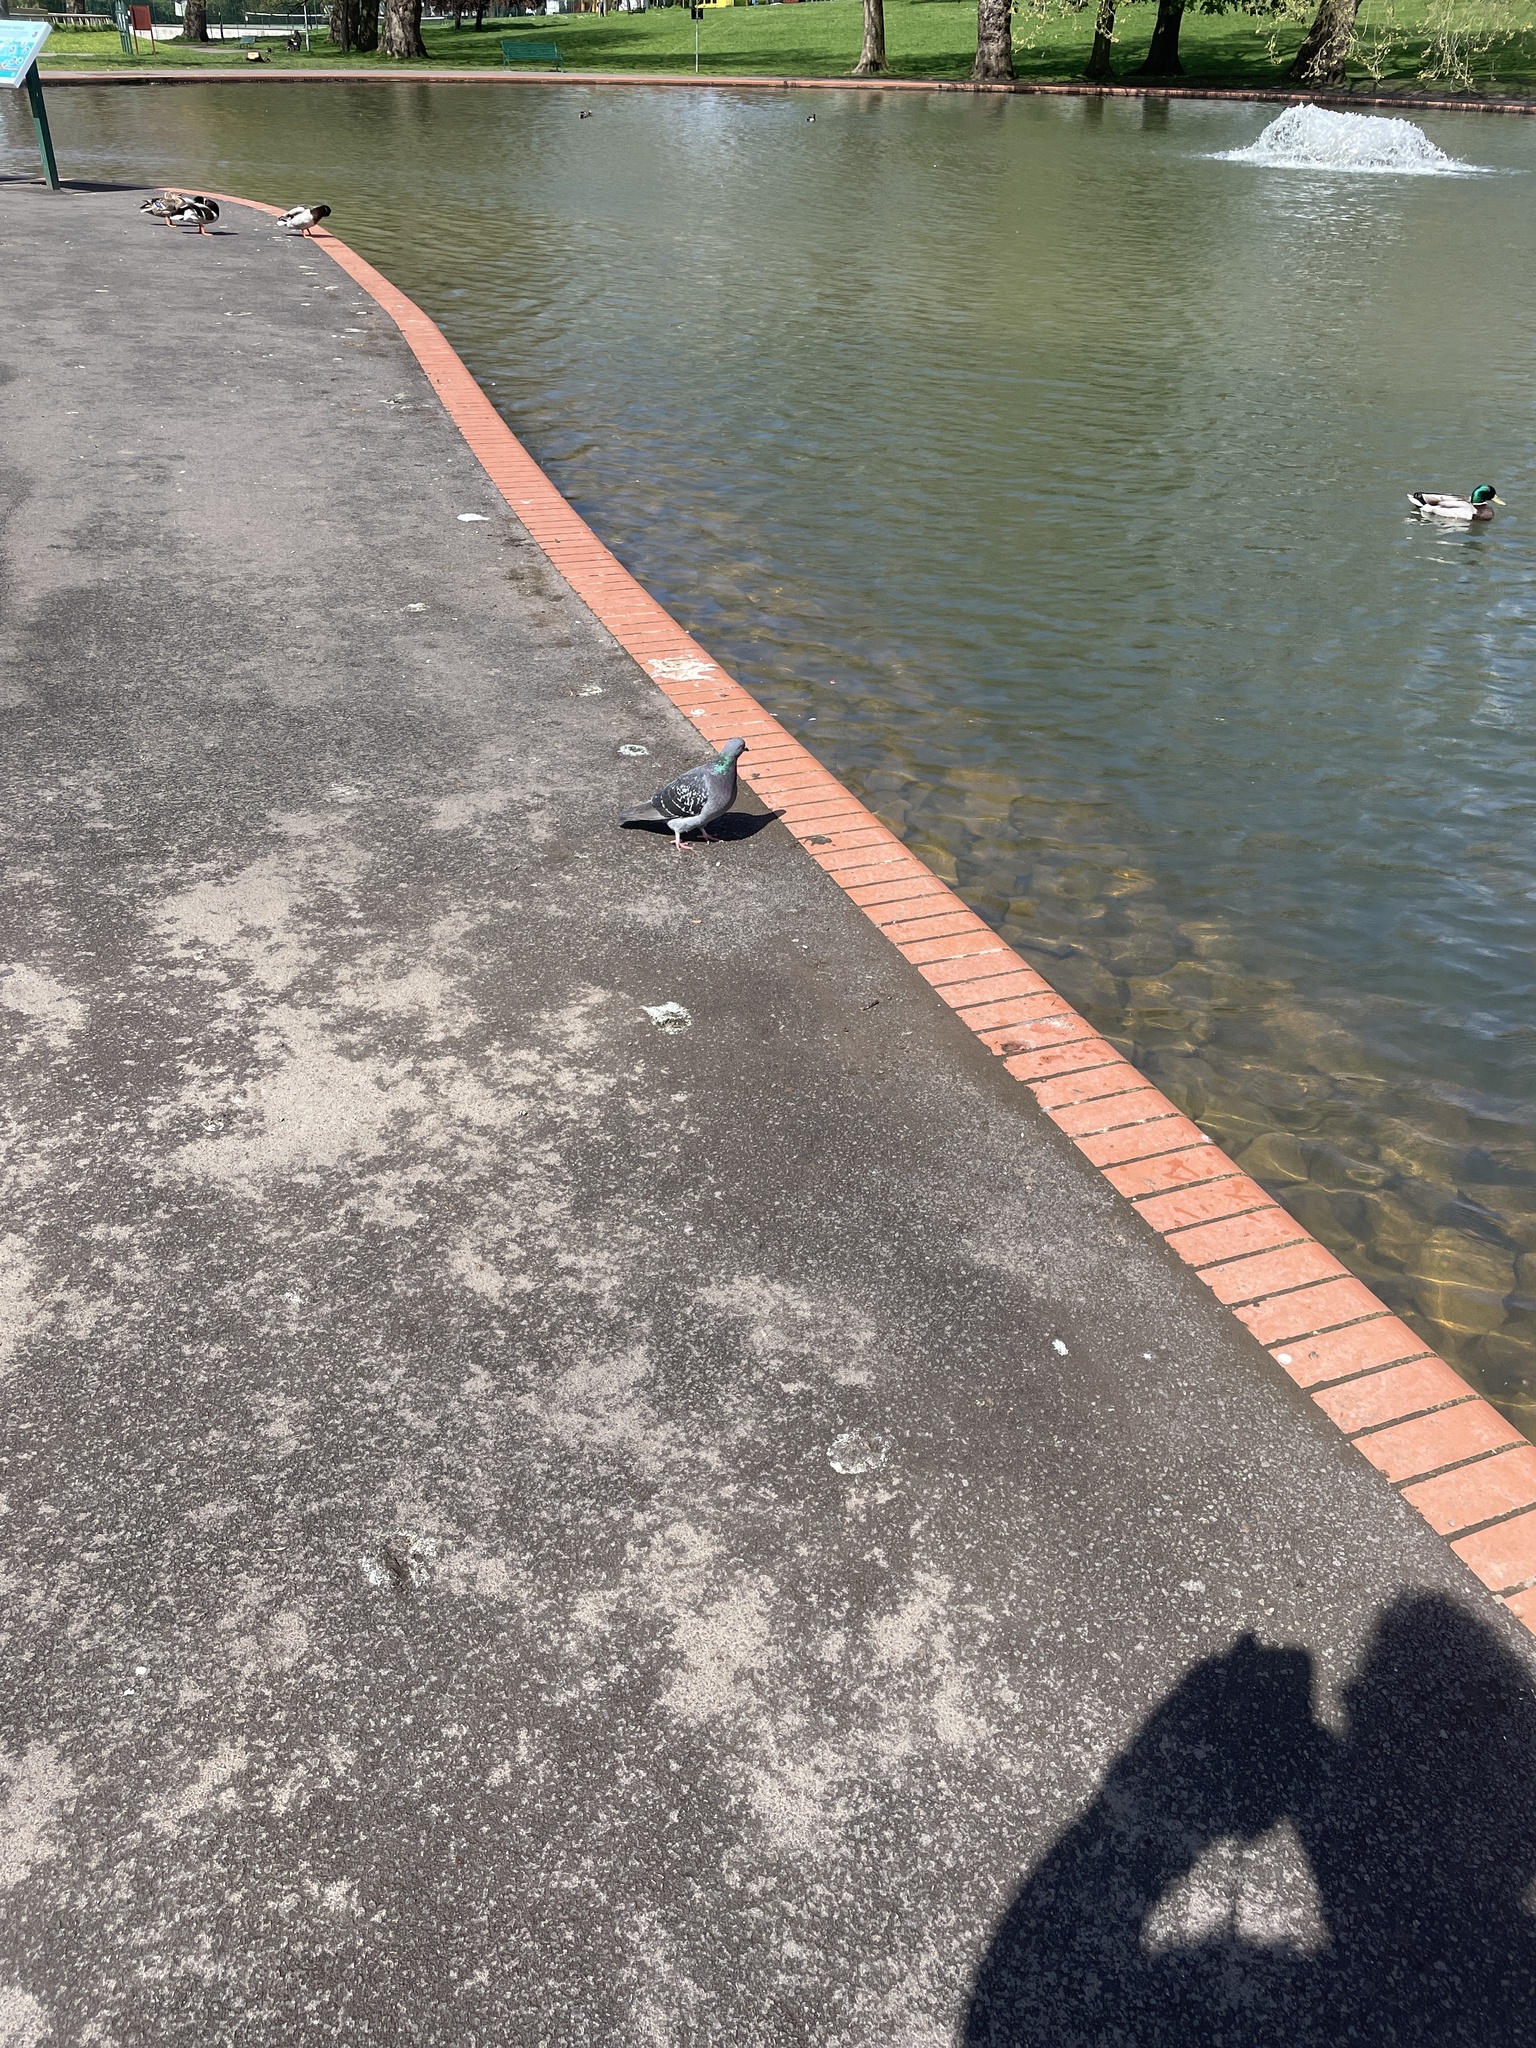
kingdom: Animalia
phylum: Chordata
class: Aves
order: Columbiformes
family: Columbidae
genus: Columba
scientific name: Columba livia
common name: Rock pigeon
